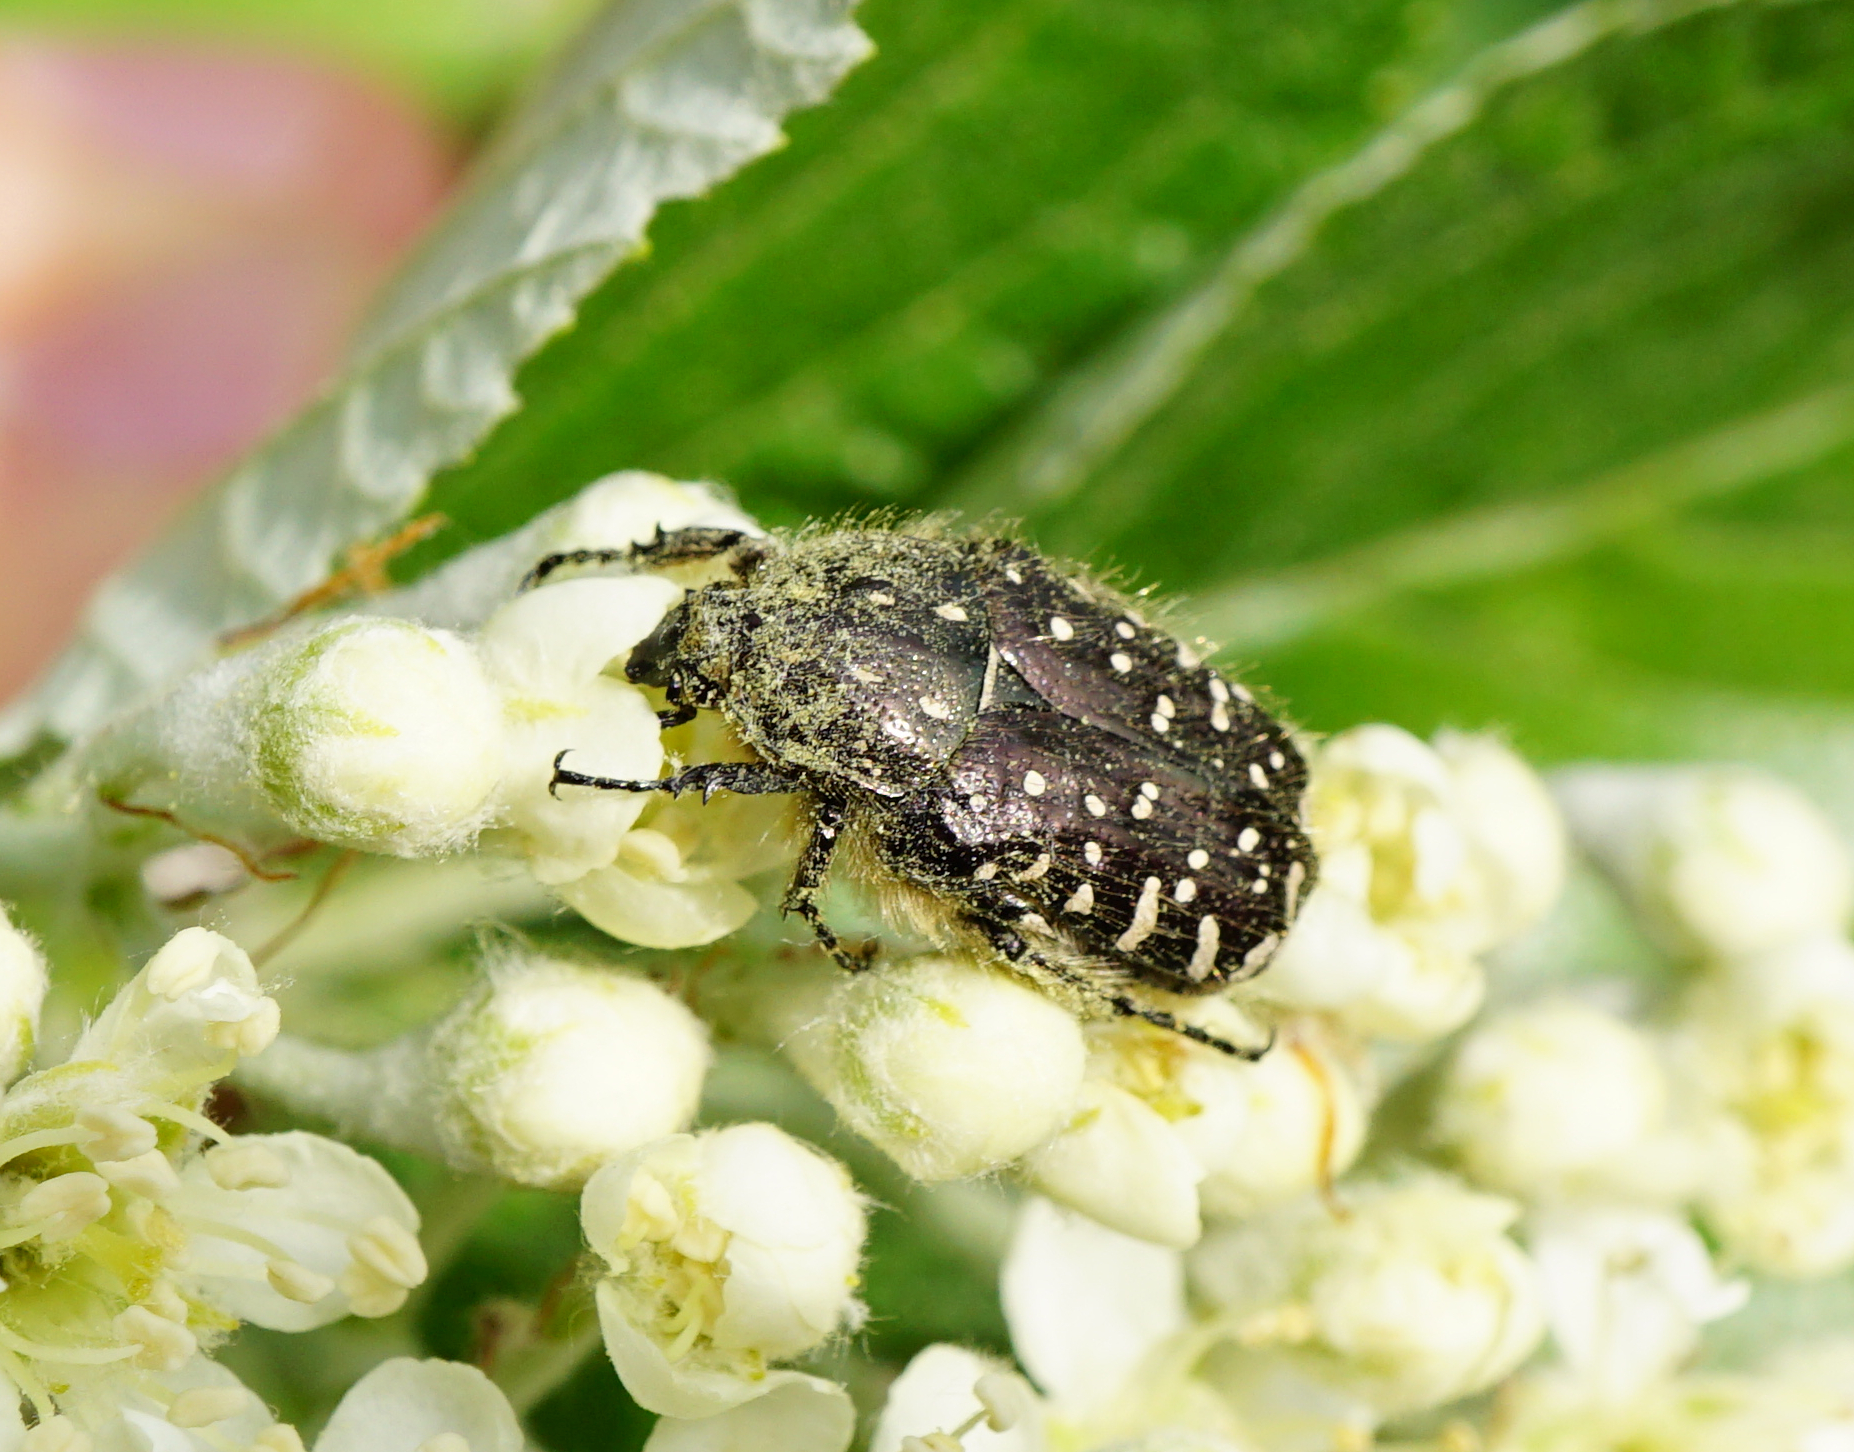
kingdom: Animalia
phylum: Arthropoda
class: Insecta
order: Coleoptera
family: Scarabaeidae
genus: Oxythyrea
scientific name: Oxythyrea funesta
